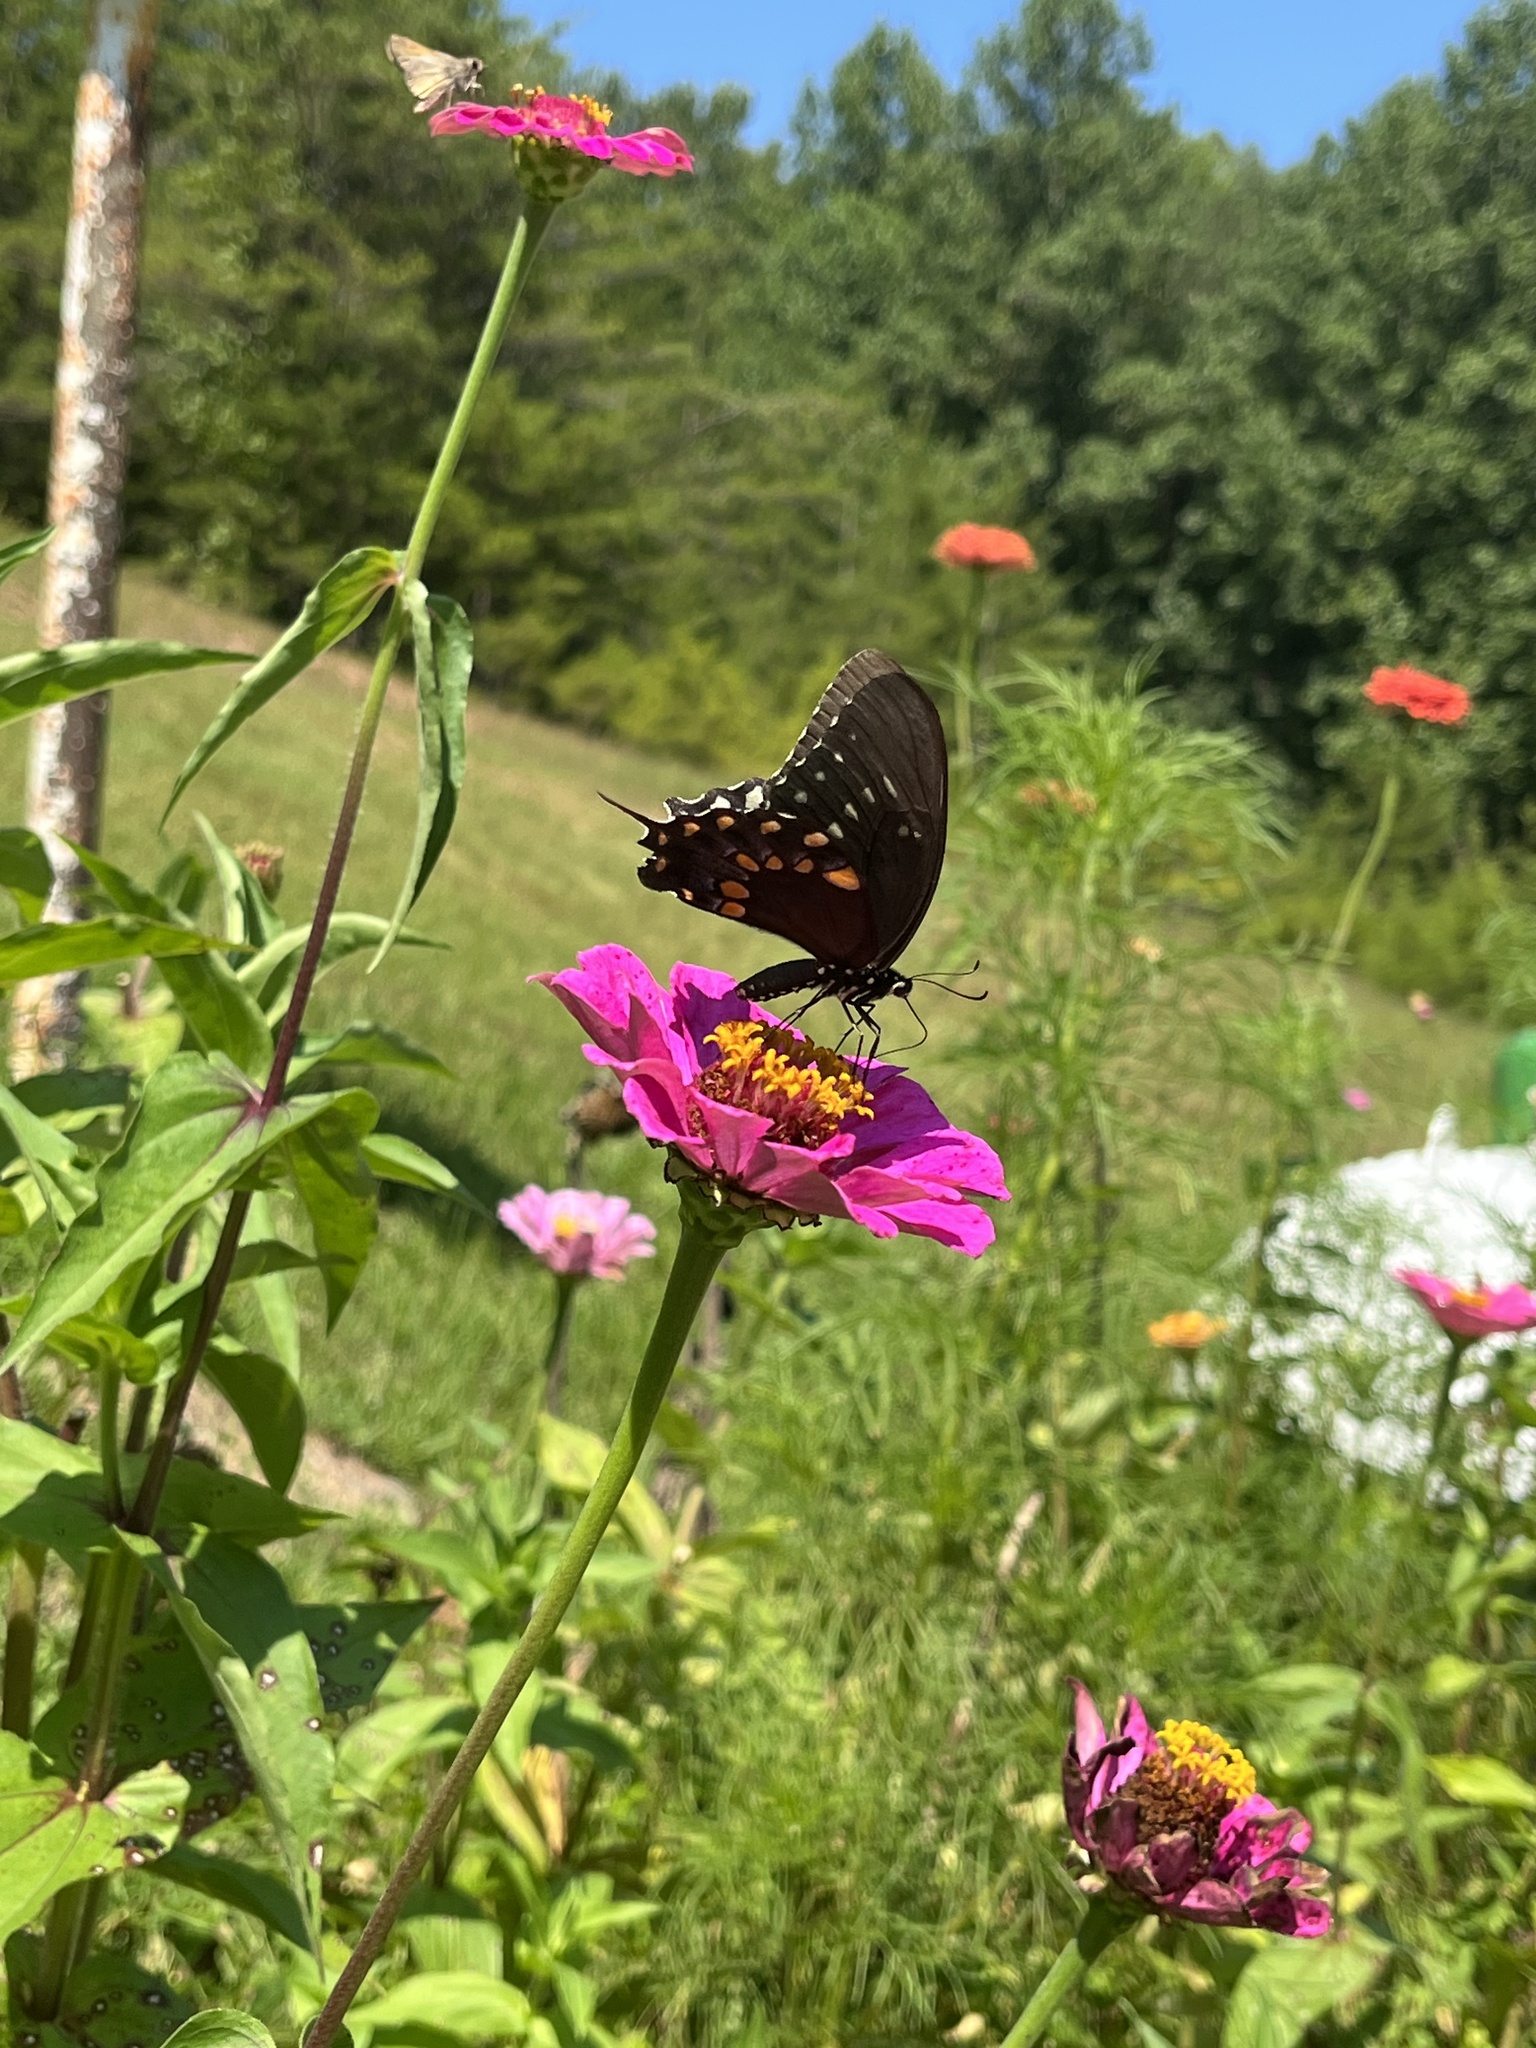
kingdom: Animalia
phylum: Arthropoda
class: Insecta
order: Lepidoptera
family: Papilionidae
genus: Papilio
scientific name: Papilio troilus
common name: Spicebush swallowtail
